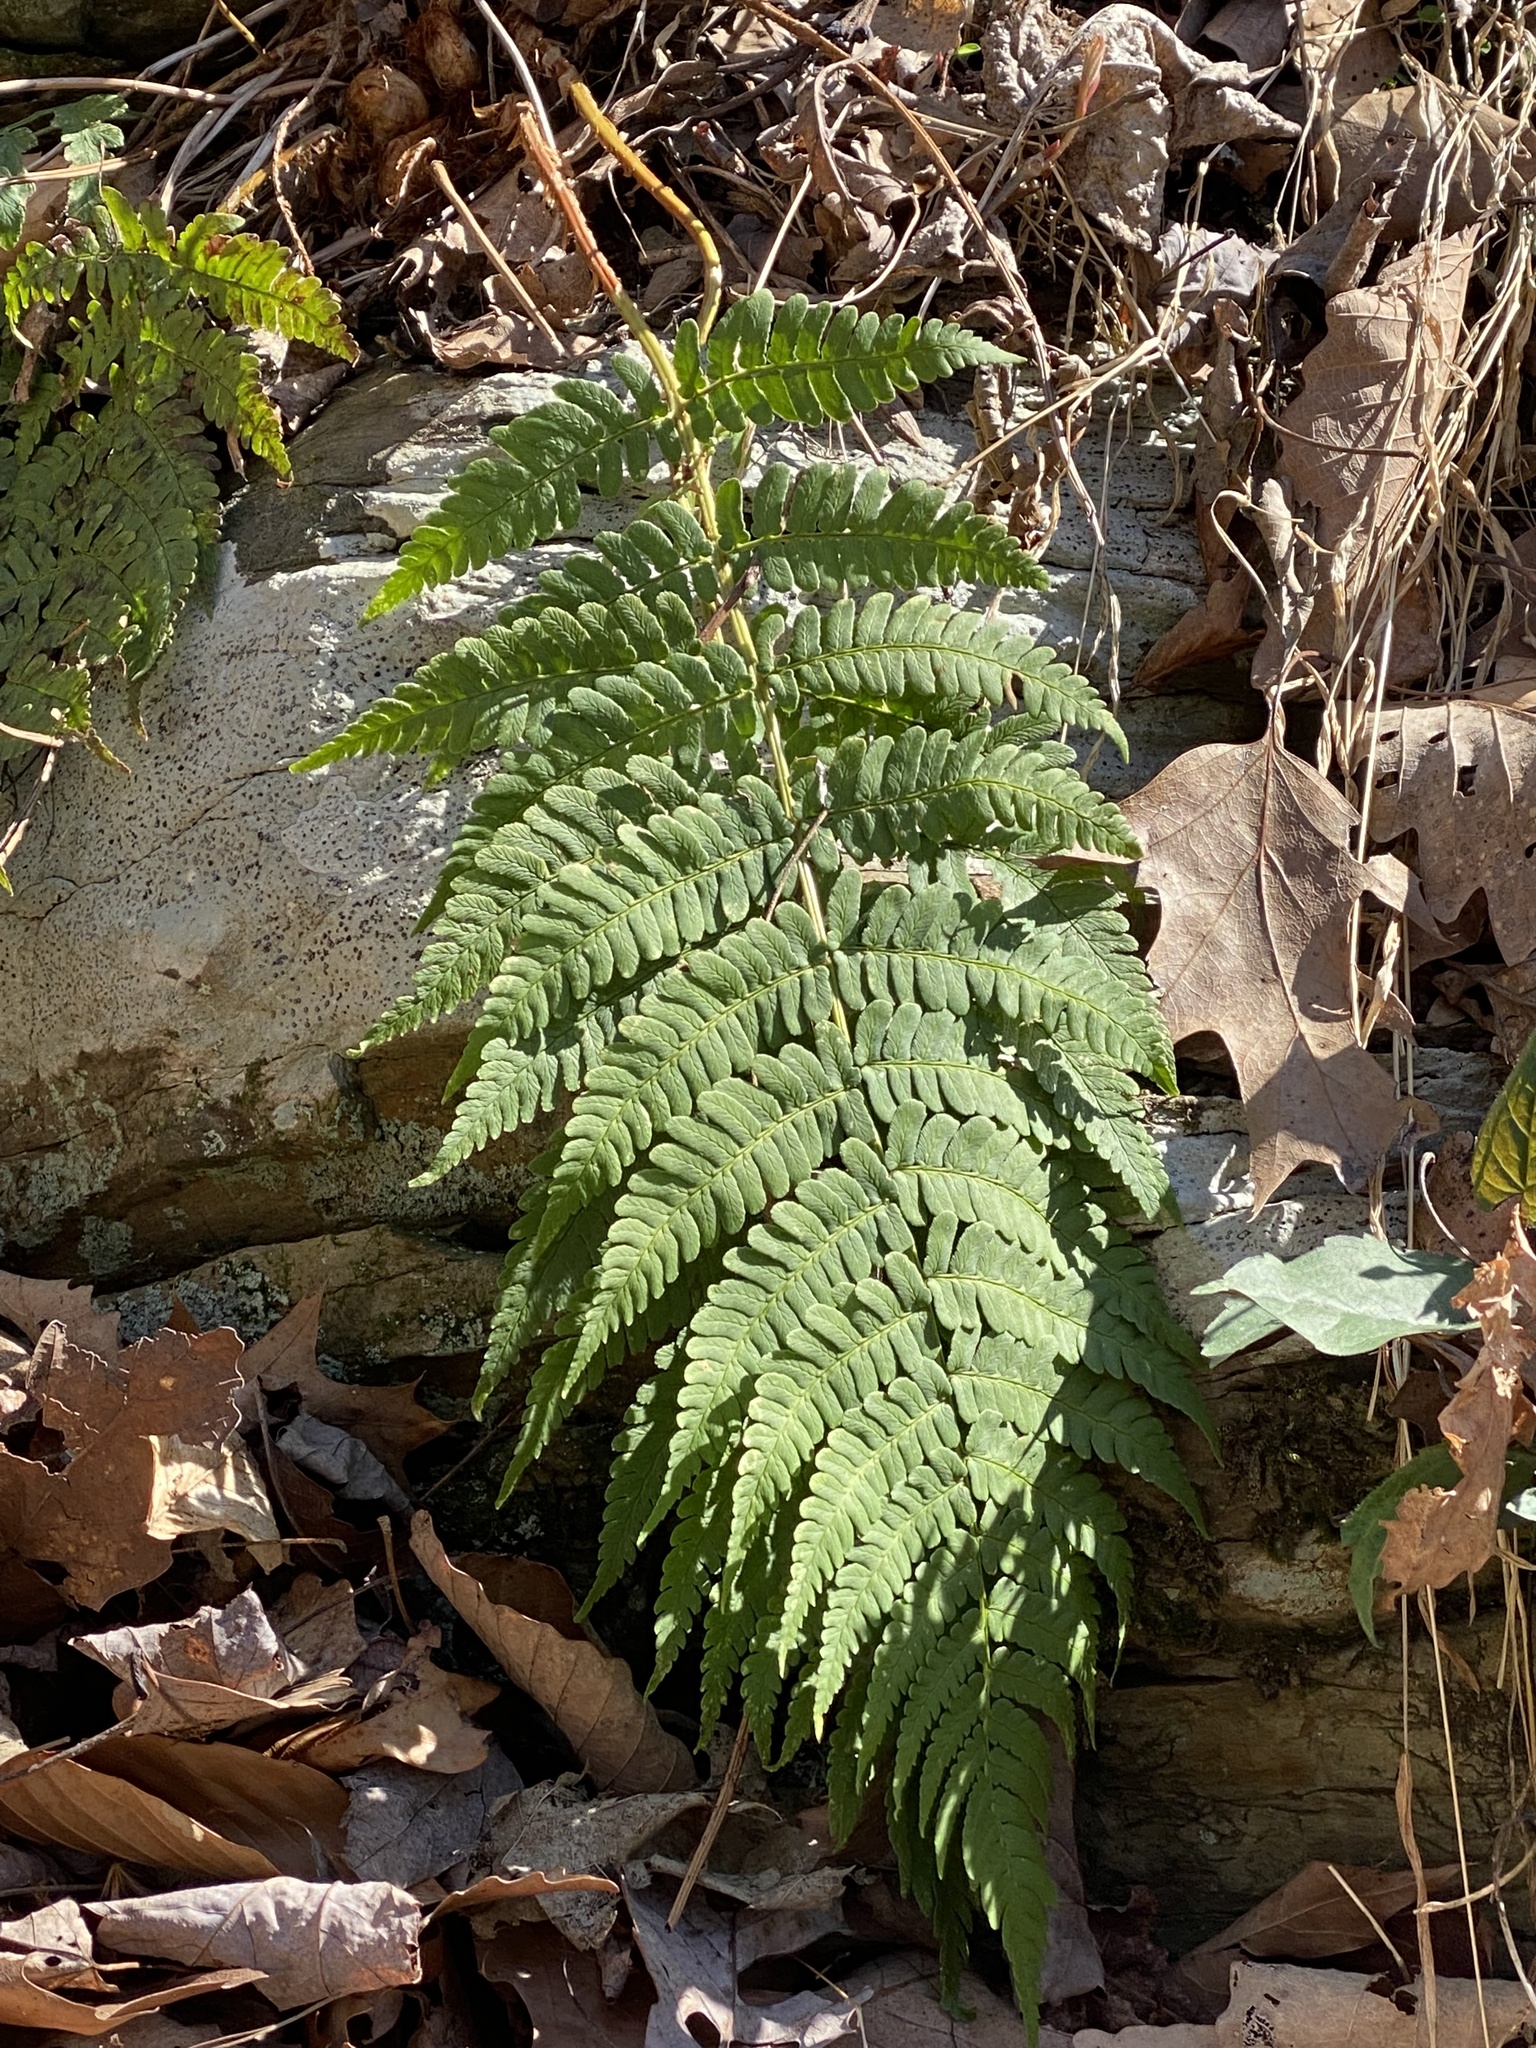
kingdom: Plantae
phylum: Tracheophyta
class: Polypodiopsida
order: Polypodiales
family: Dryopteridaceae
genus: Dryopteris
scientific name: Dryopteris marginalis
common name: Marginal wood fern
